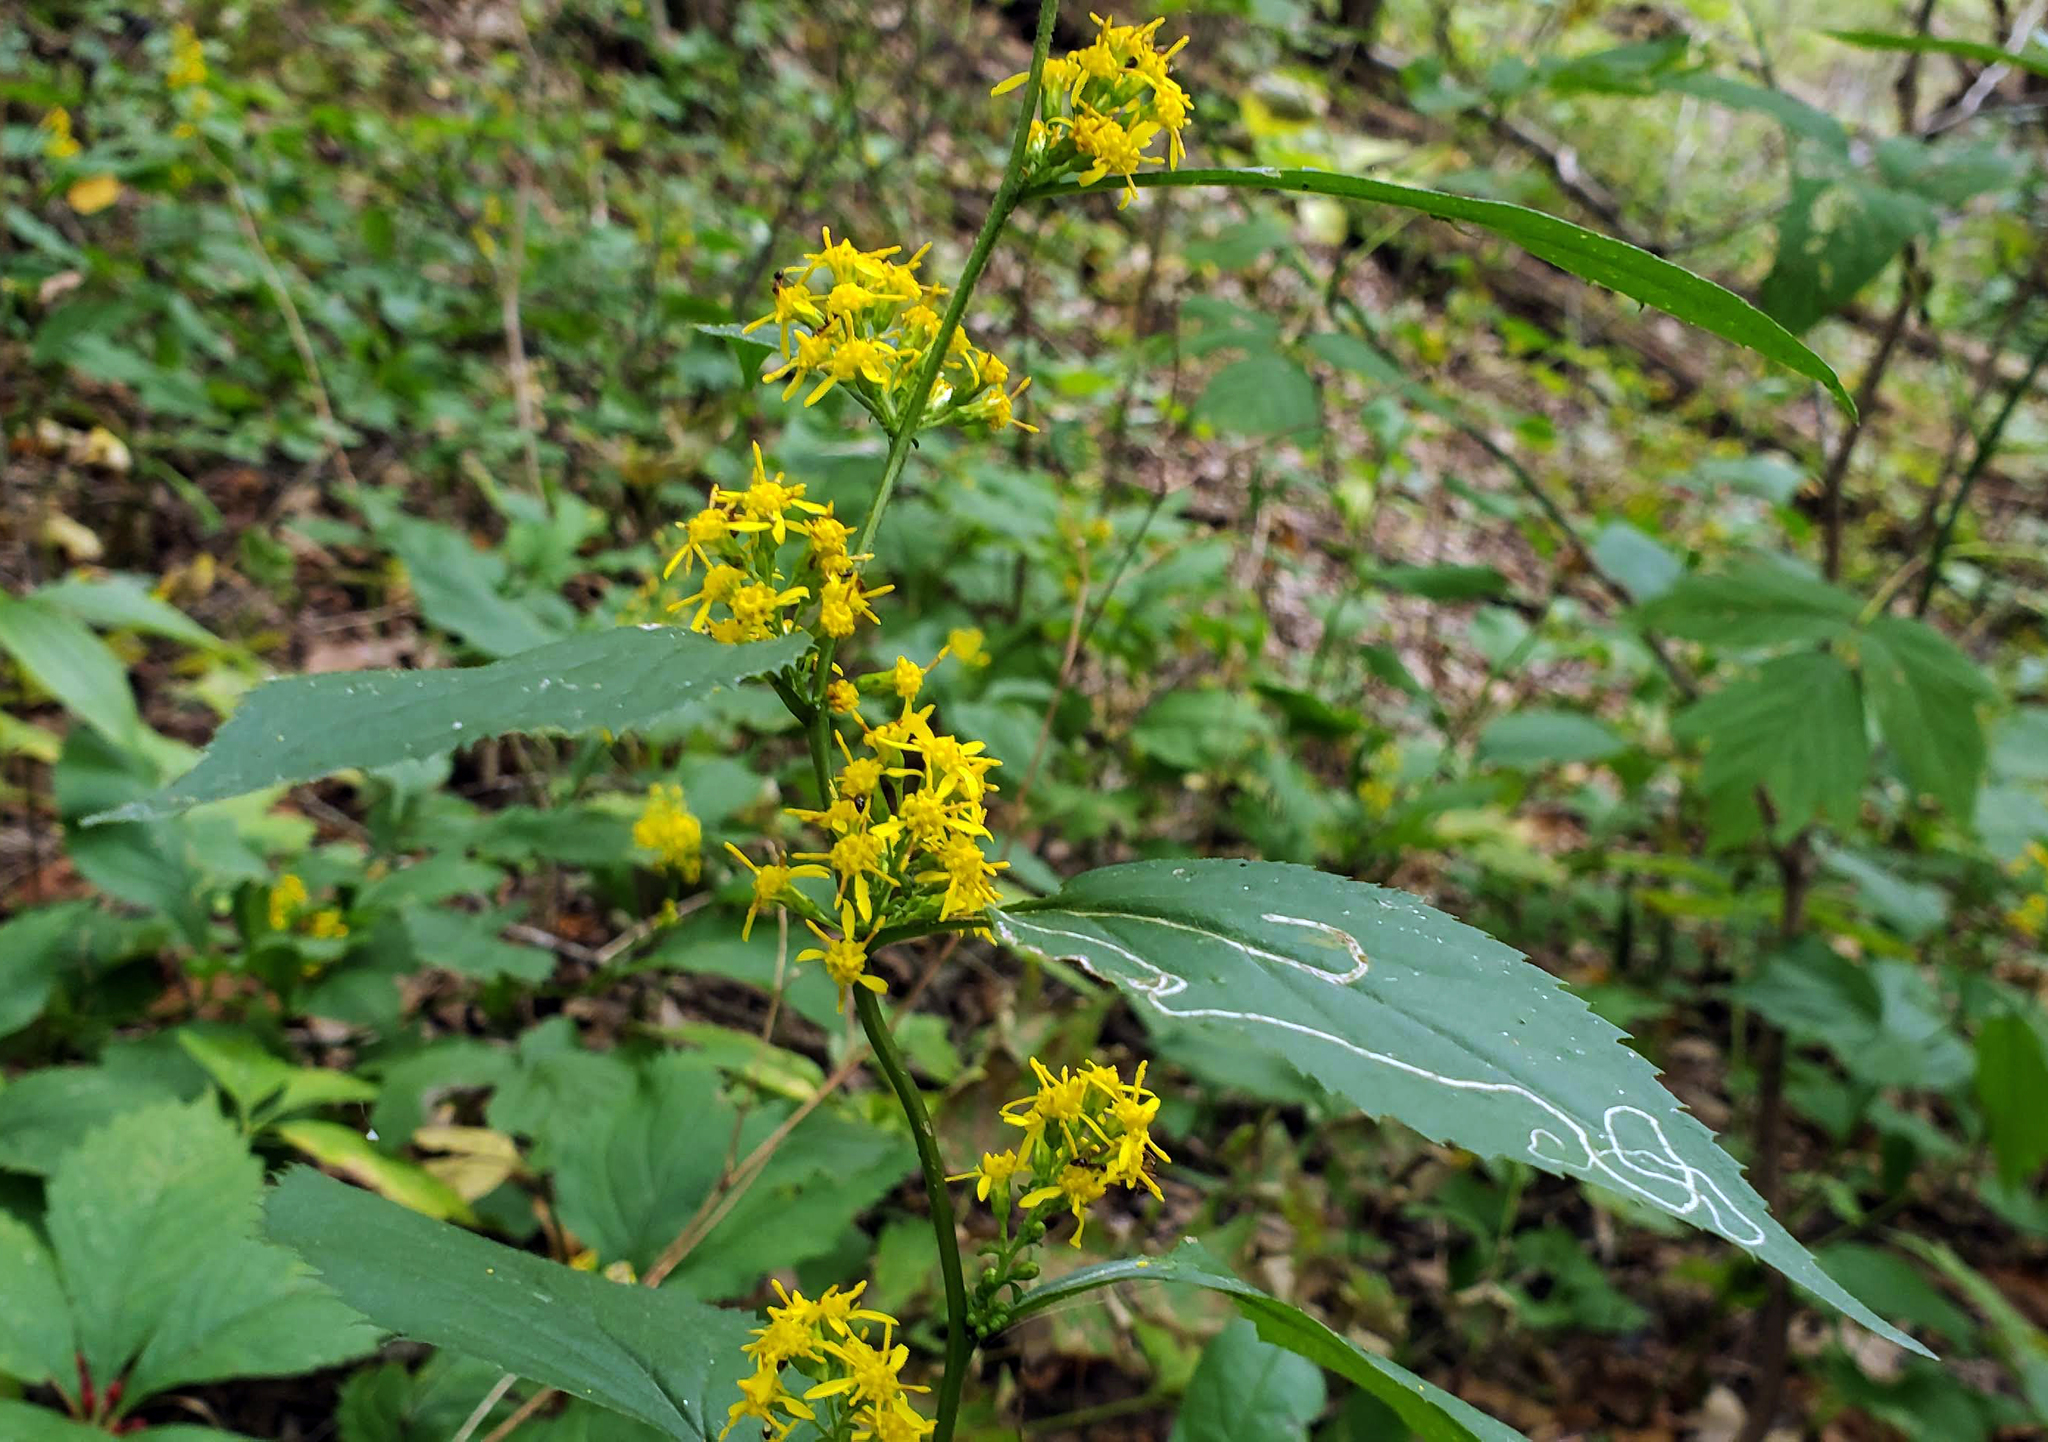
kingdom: Plantae
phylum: Tracheophyta
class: Magnoliopsida
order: Asterales
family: Asteraceae
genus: Solidago
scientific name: Solidago flexicaulis
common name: Zig-zag goldenrod
